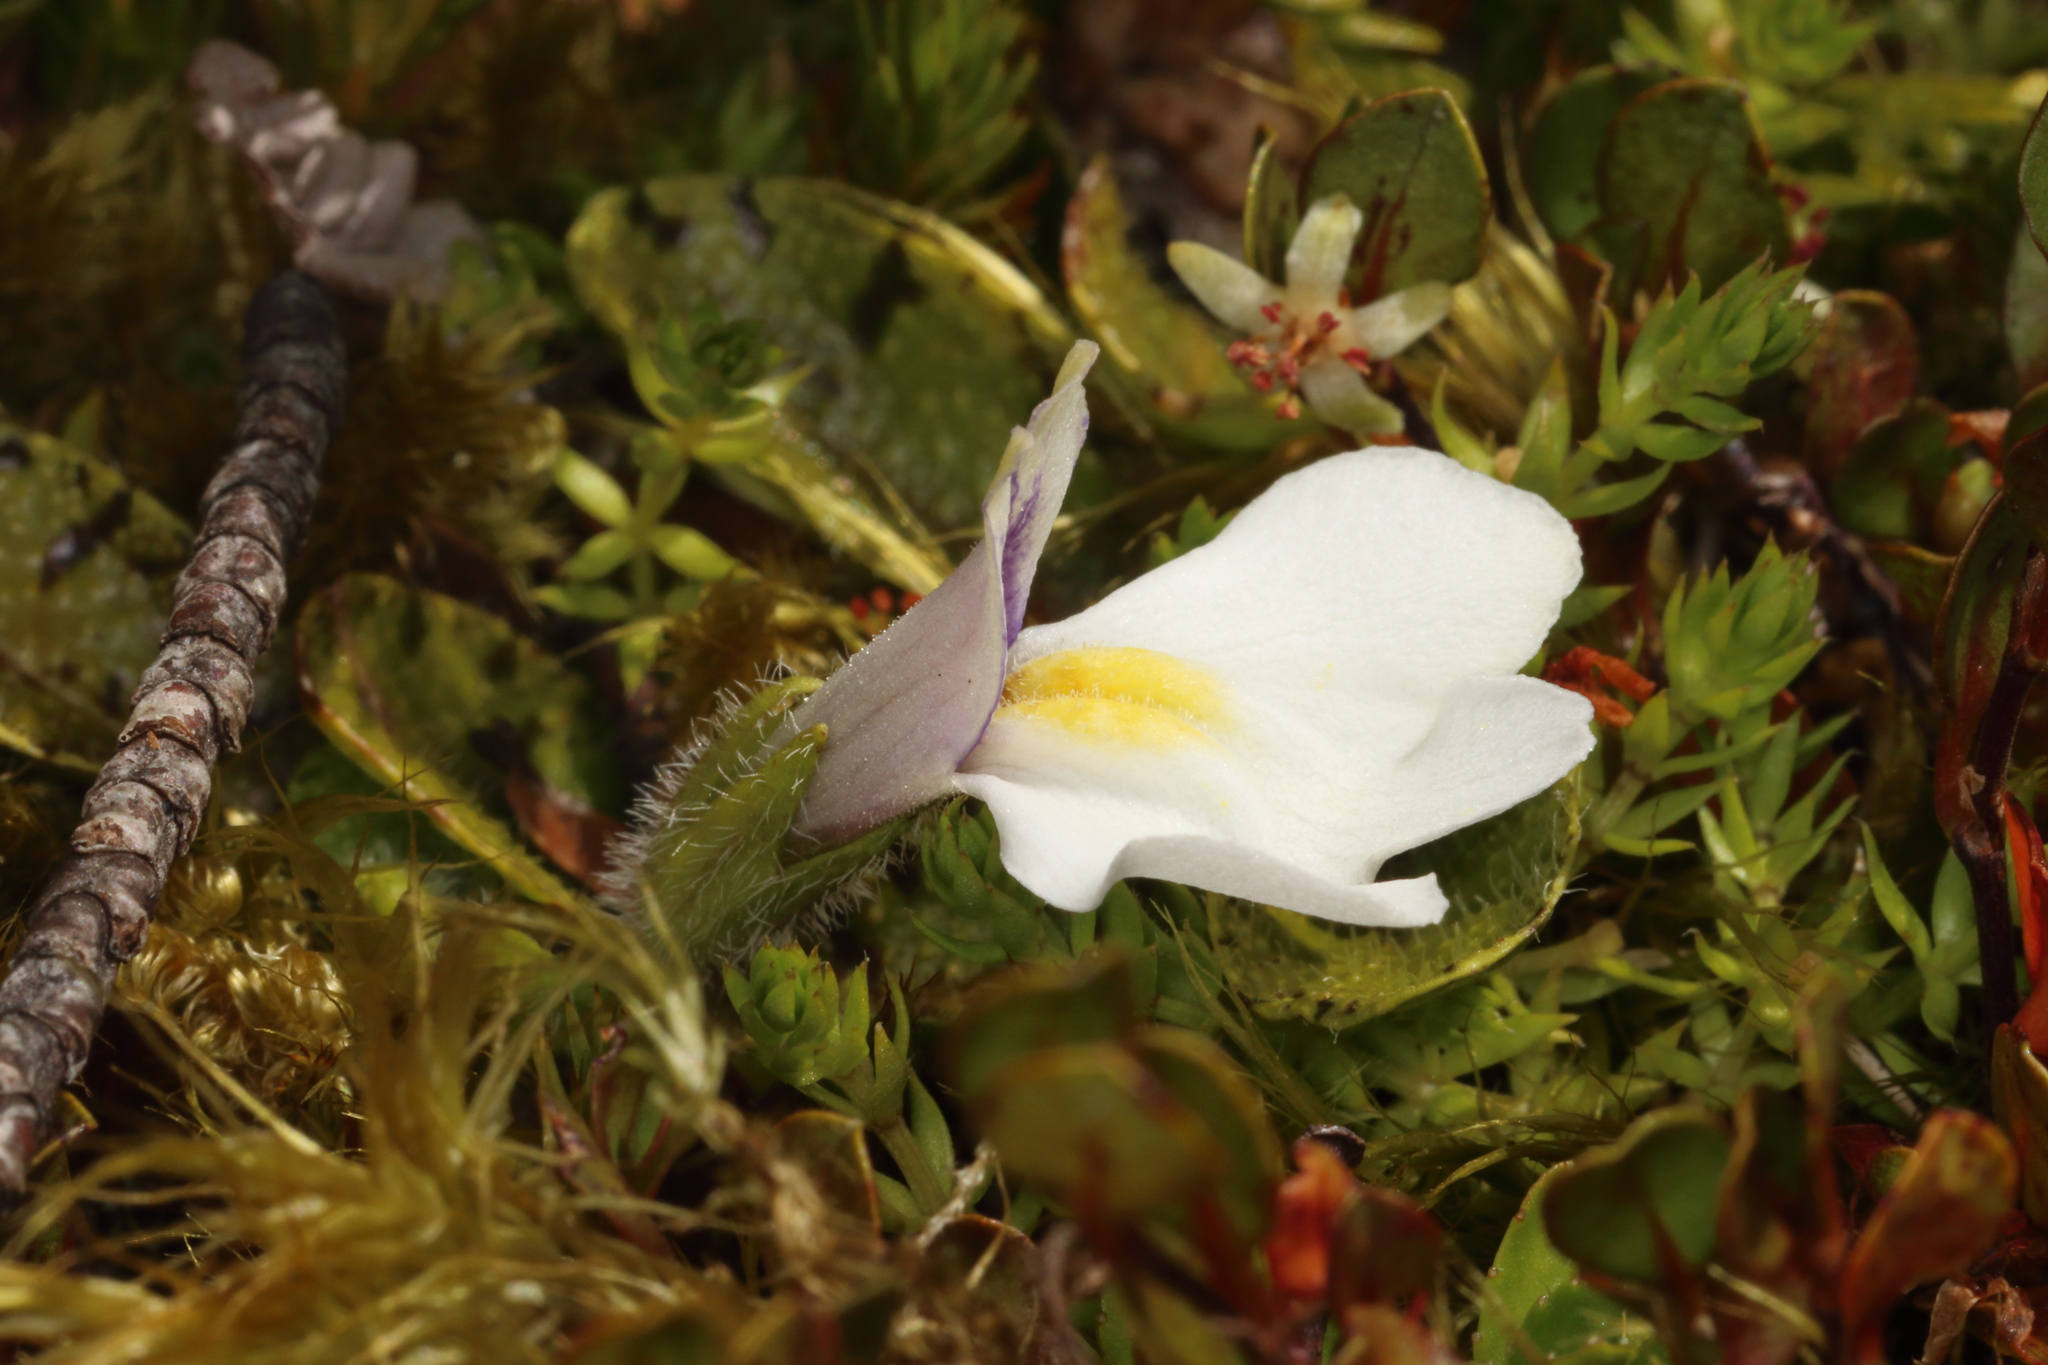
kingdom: Plantae
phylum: Tracheophyta
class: Magnoliopsida
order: Lamiales
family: Mazaceae
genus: Mazus
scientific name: Mazus radicans
